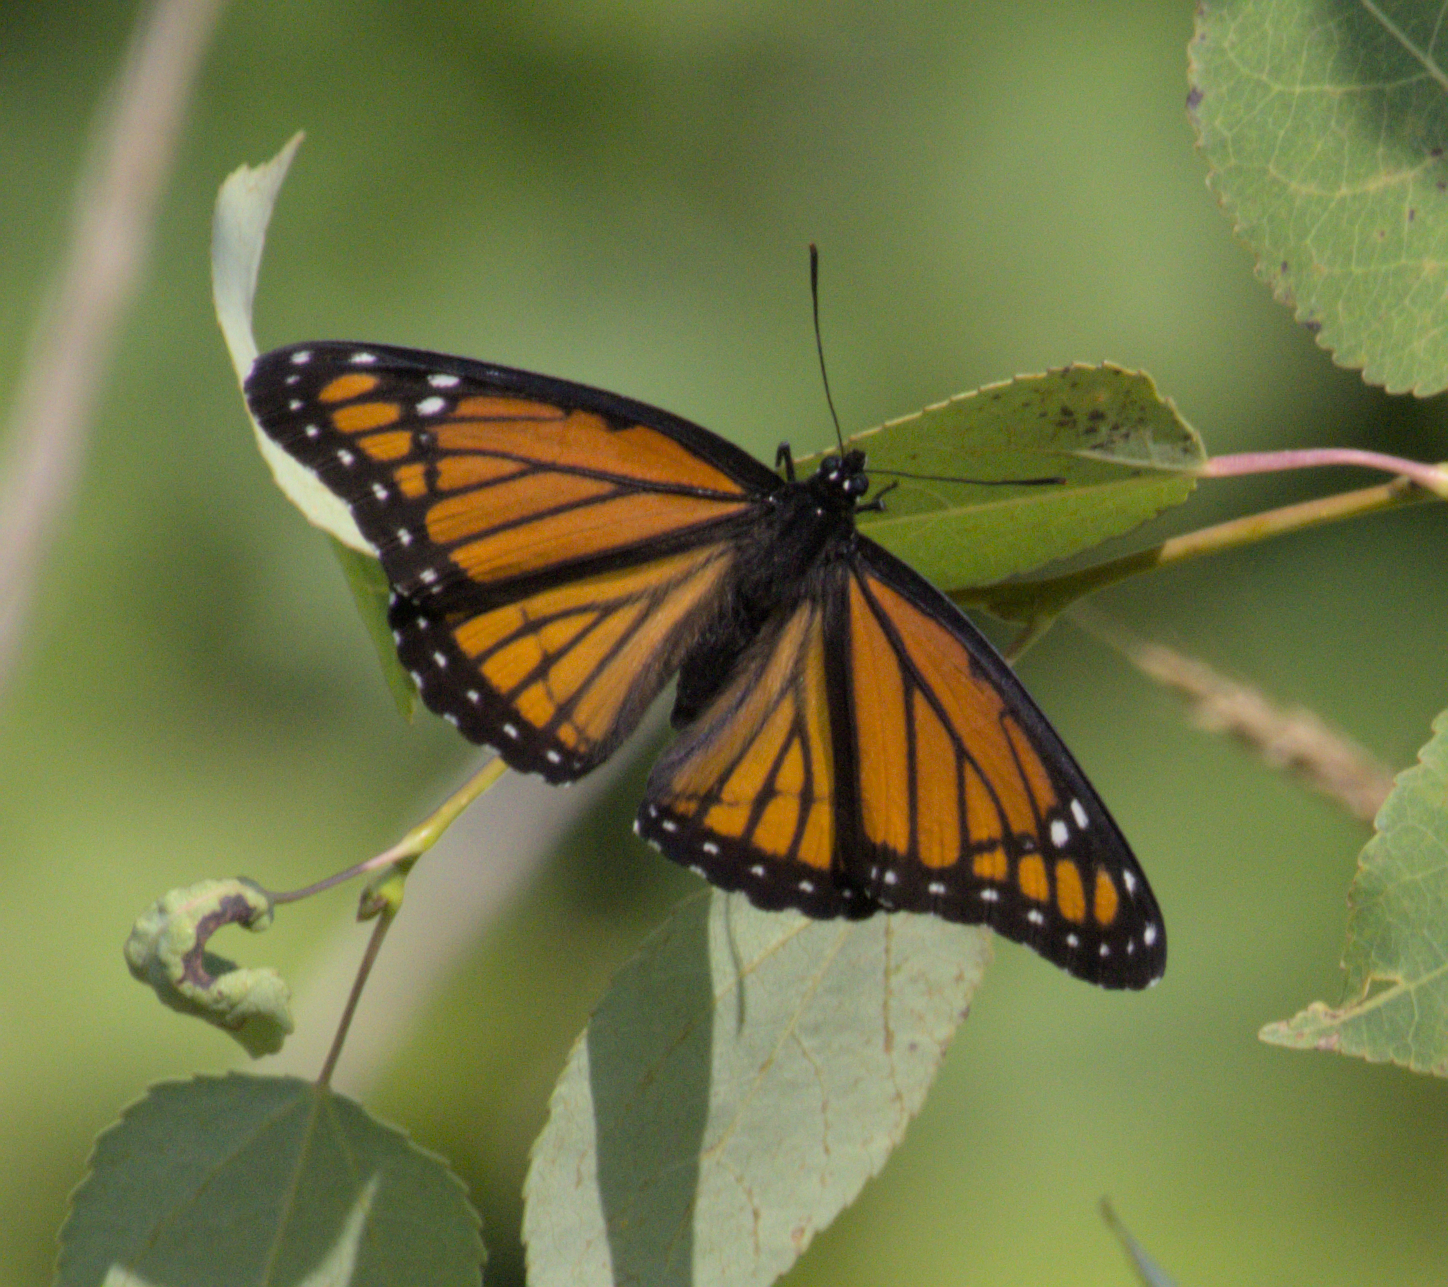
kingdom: Animalia
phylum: Arthropoda
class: Insecta
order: Lepidoptera
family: Nymphalidae
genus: Limenitis
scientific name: Limenitis archippus
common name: Viceroy
